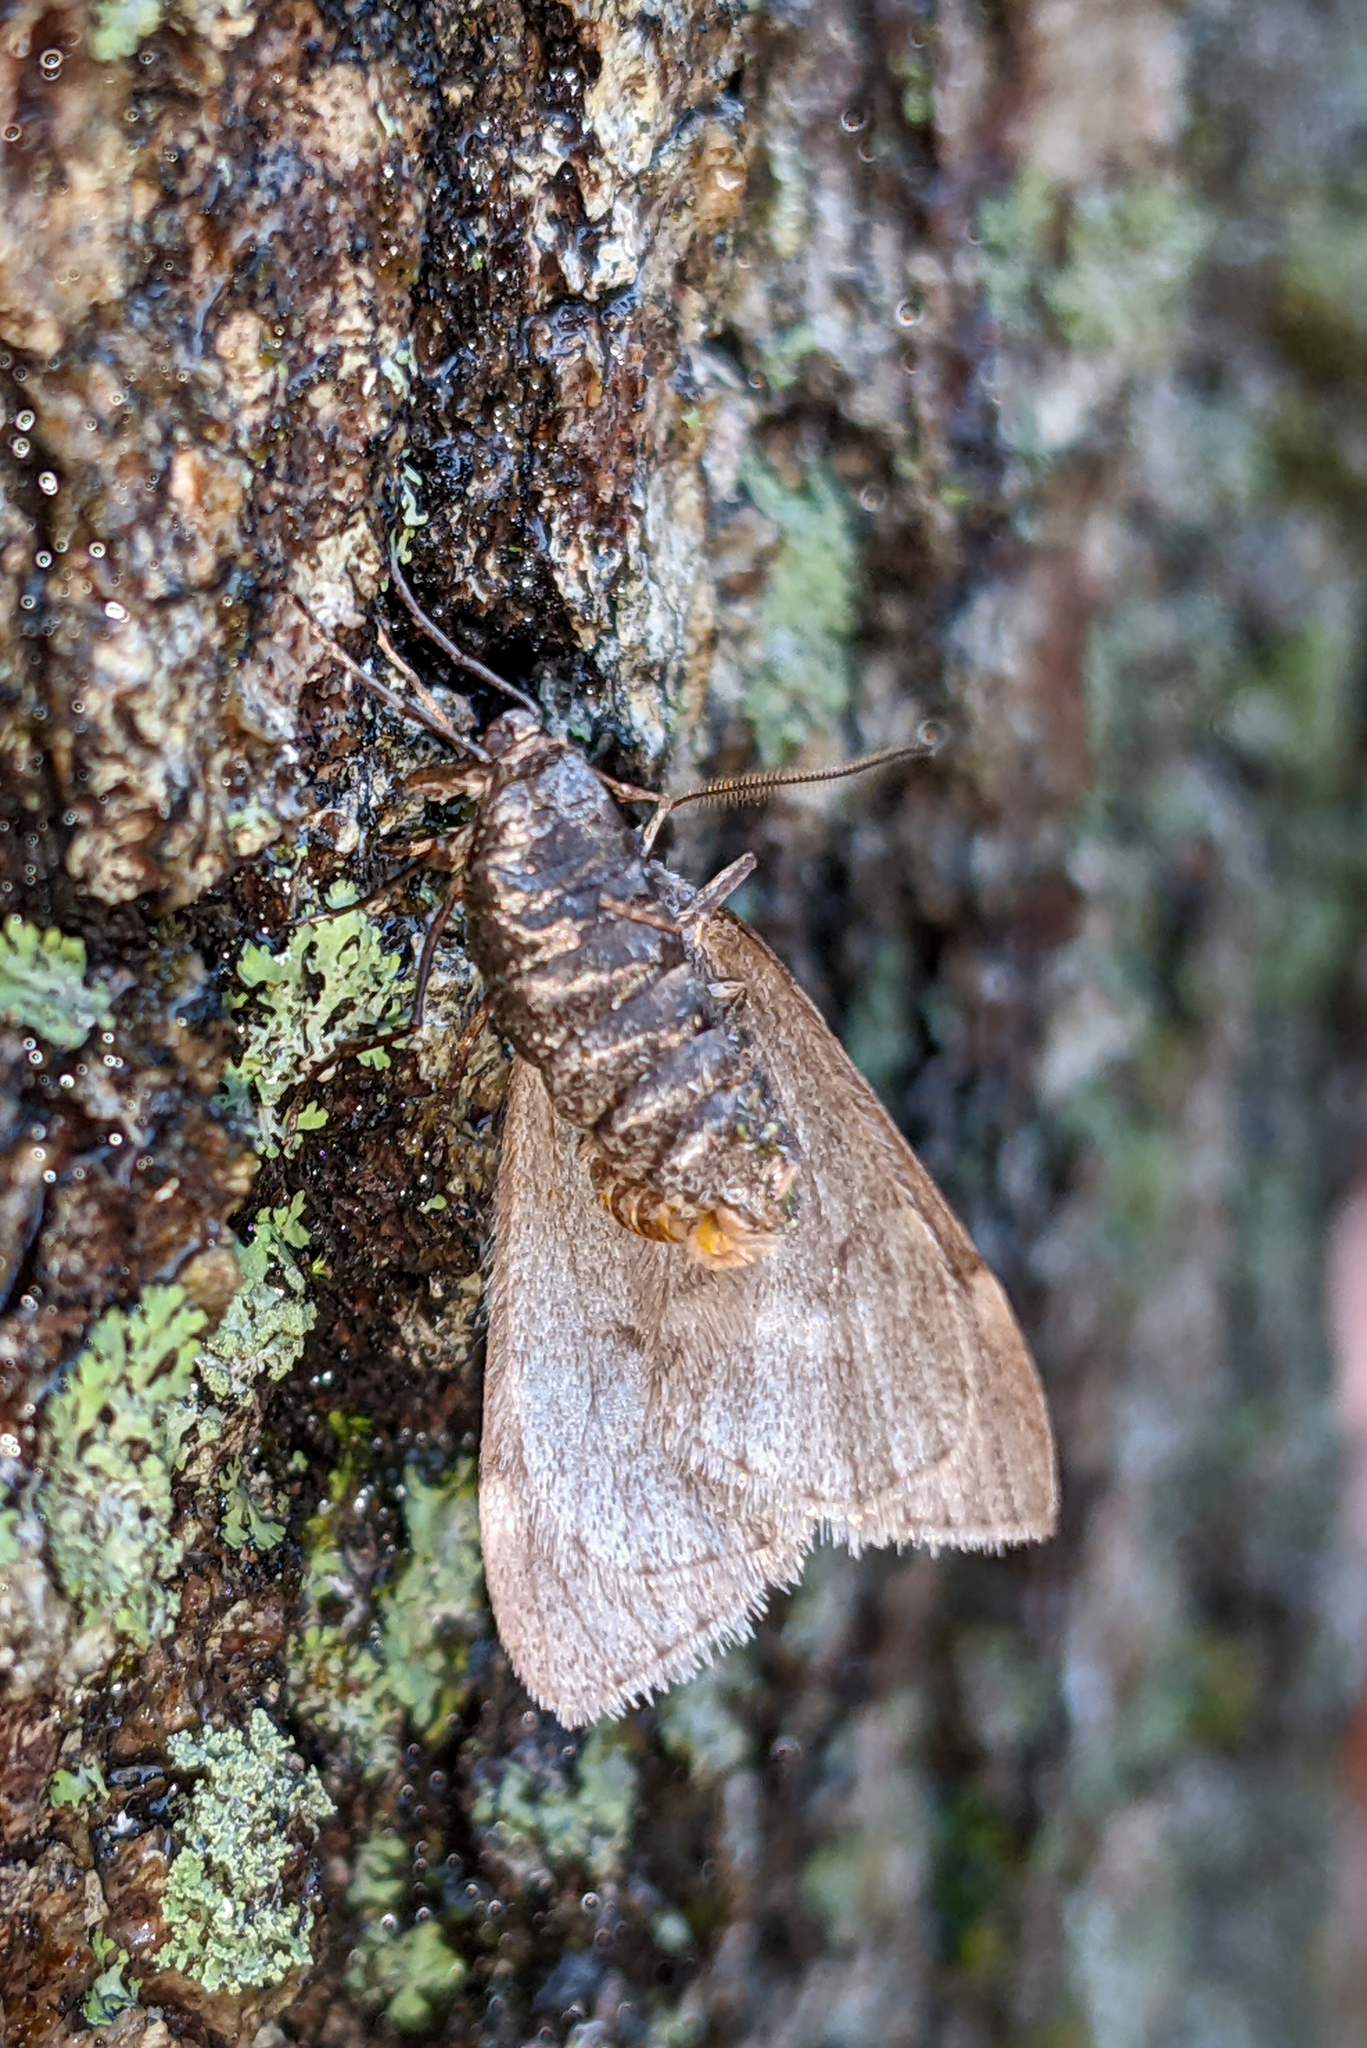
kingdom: Animalia
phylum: Arthropoda
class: Insecta
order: Lepidoptera
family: Geometridae
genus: Alsophila
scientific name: Alsophila pometaria
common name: Fall cankerworm
